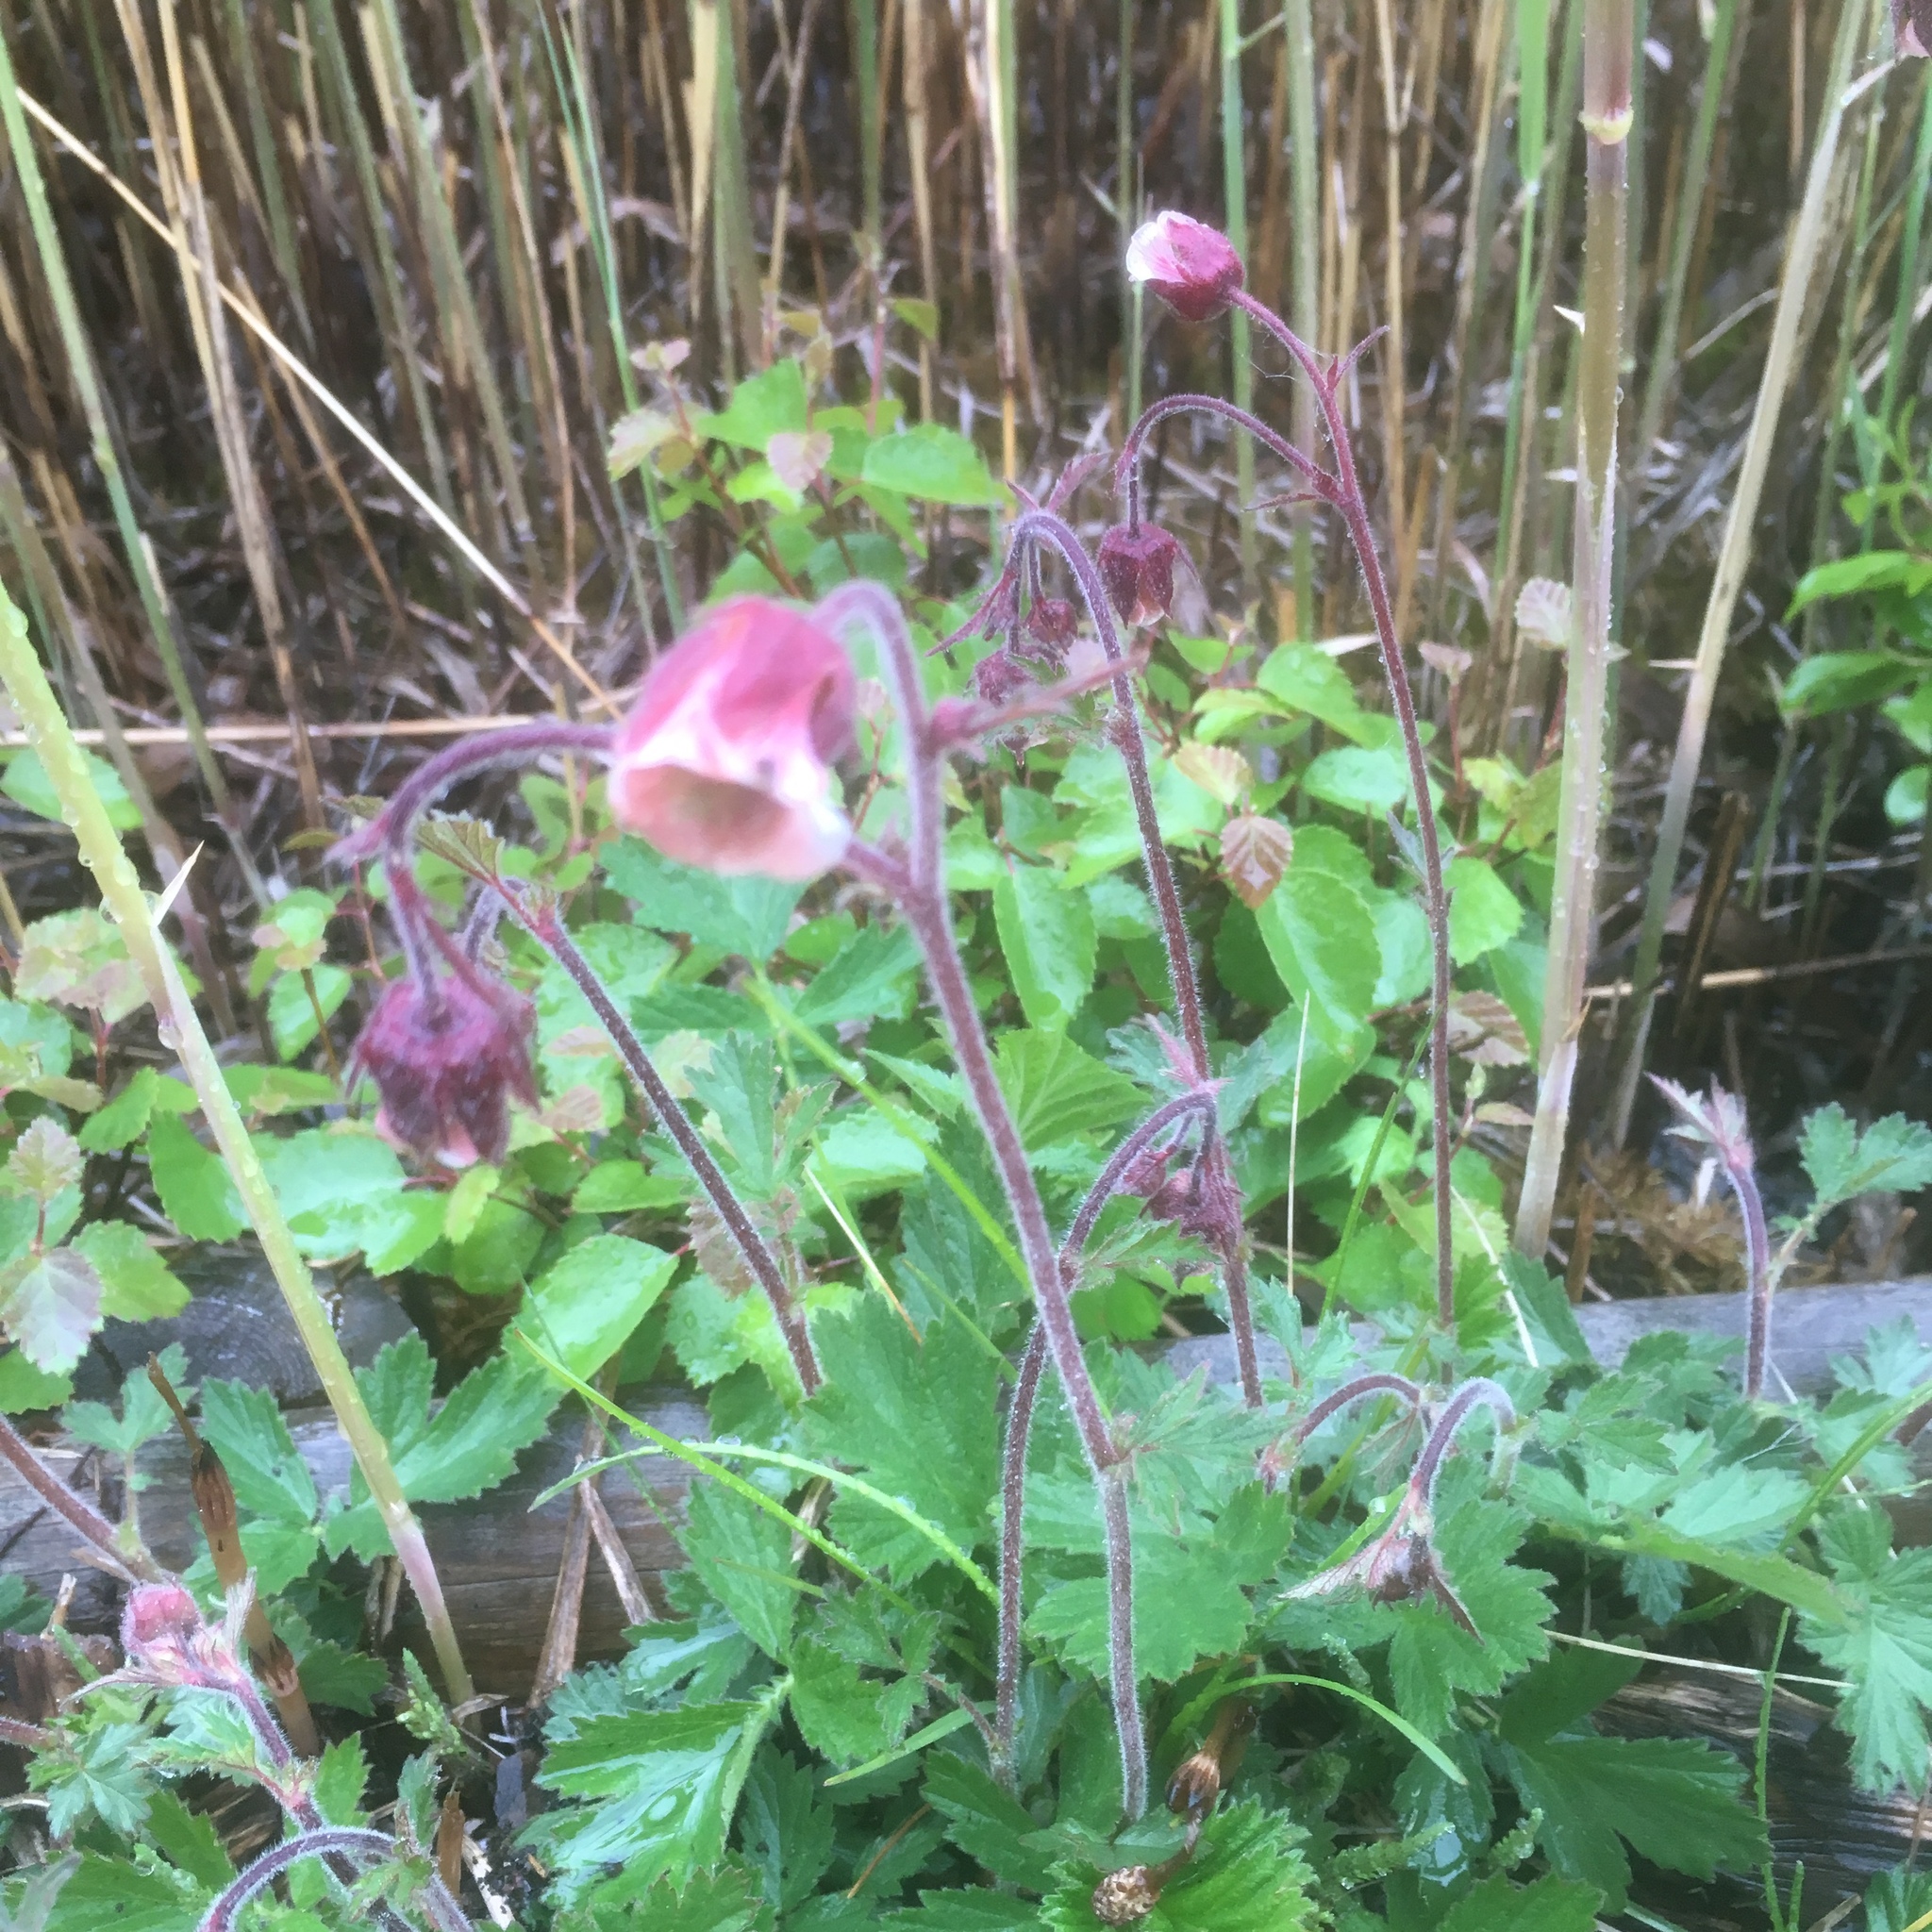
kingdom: Plantae
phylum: Tracheophyta
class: Magnoliopsida
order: Rosales
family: Rosaceae
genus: Geum
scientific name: Geum rivale
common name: Water avens
